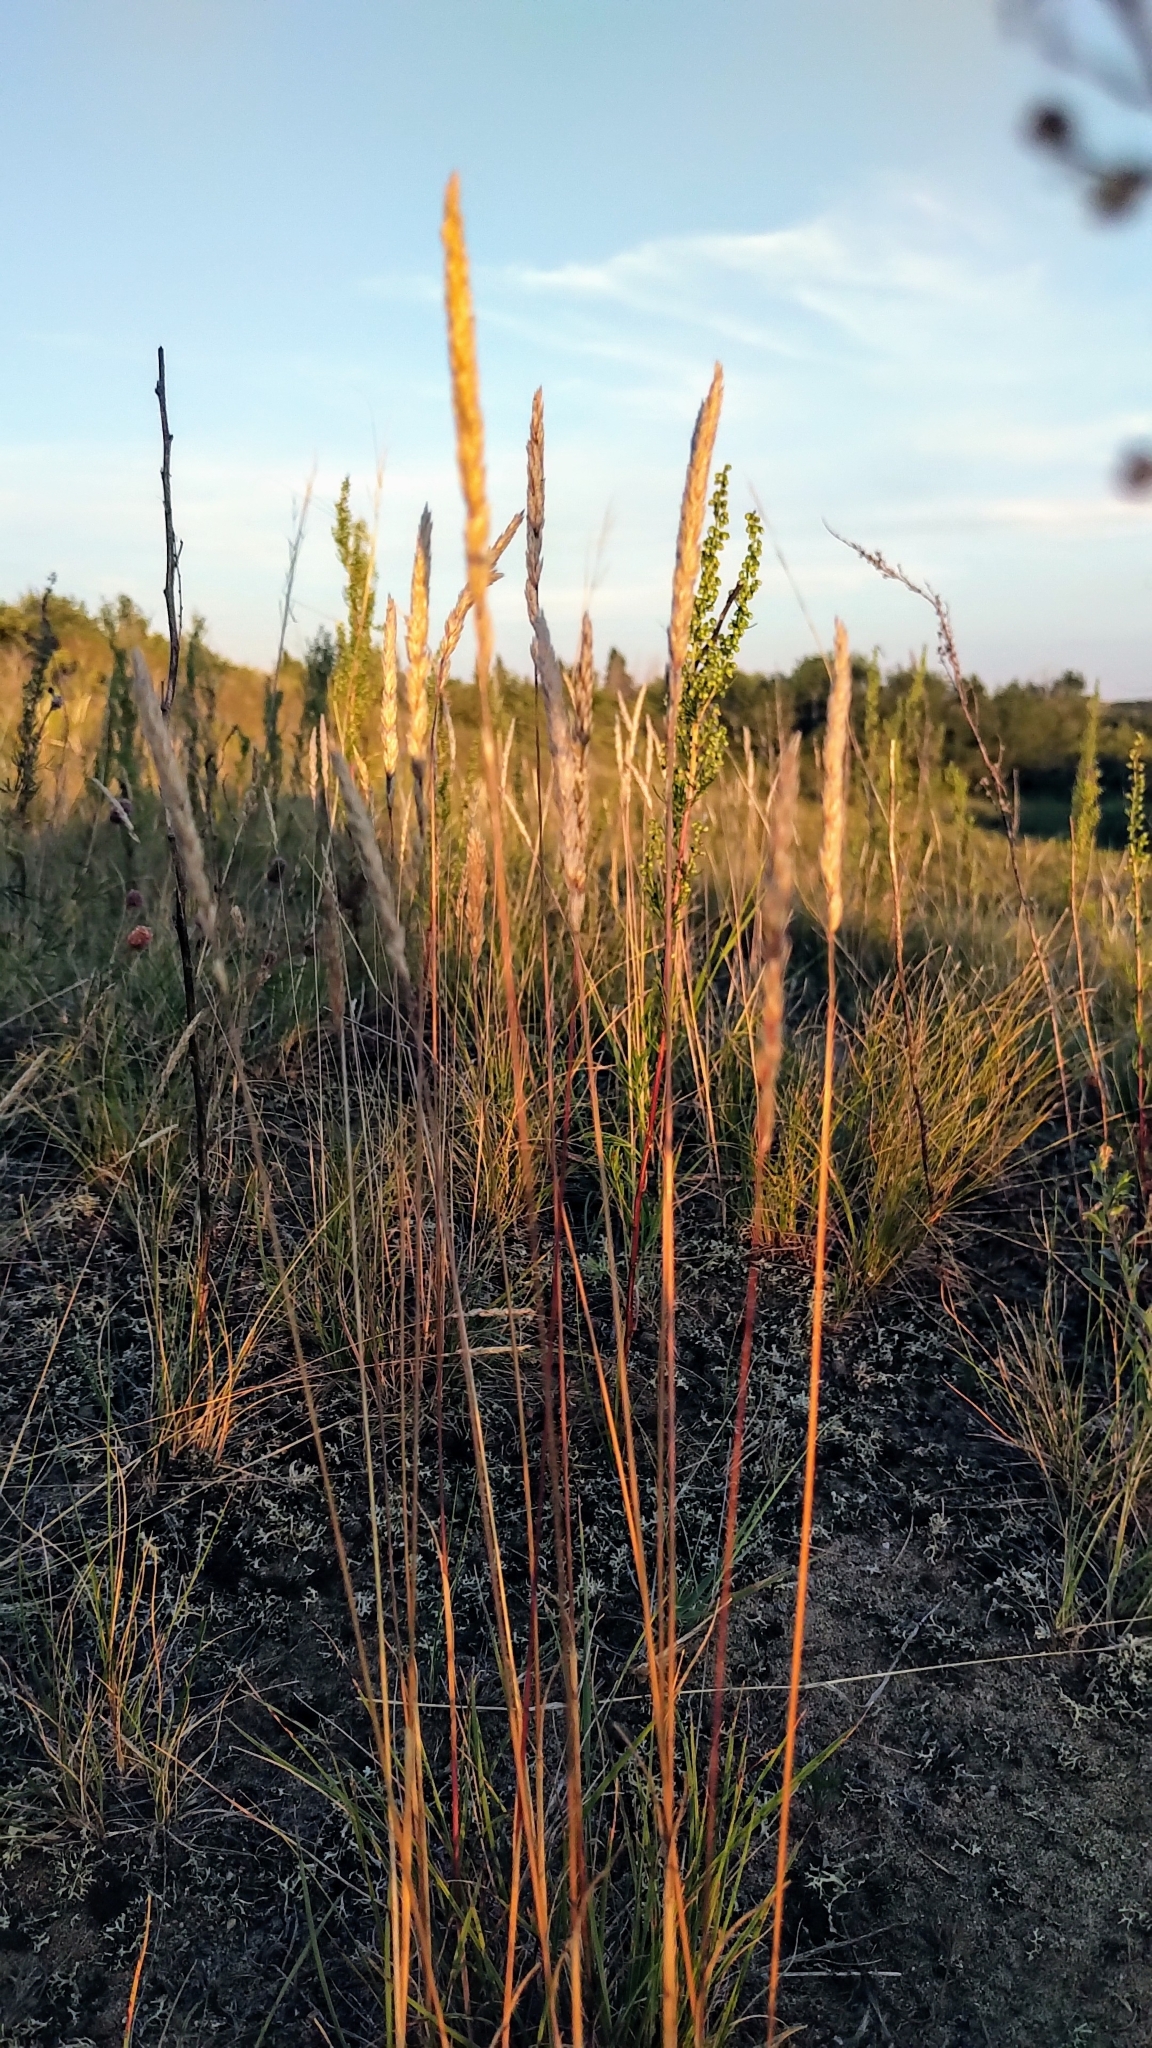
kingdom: Plantae
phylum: Tracheophyta
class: Liliopsida
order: Poales
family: Poaceae
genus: Koeleria
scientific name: Koeleria macrantha
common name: Crested hair-grass
